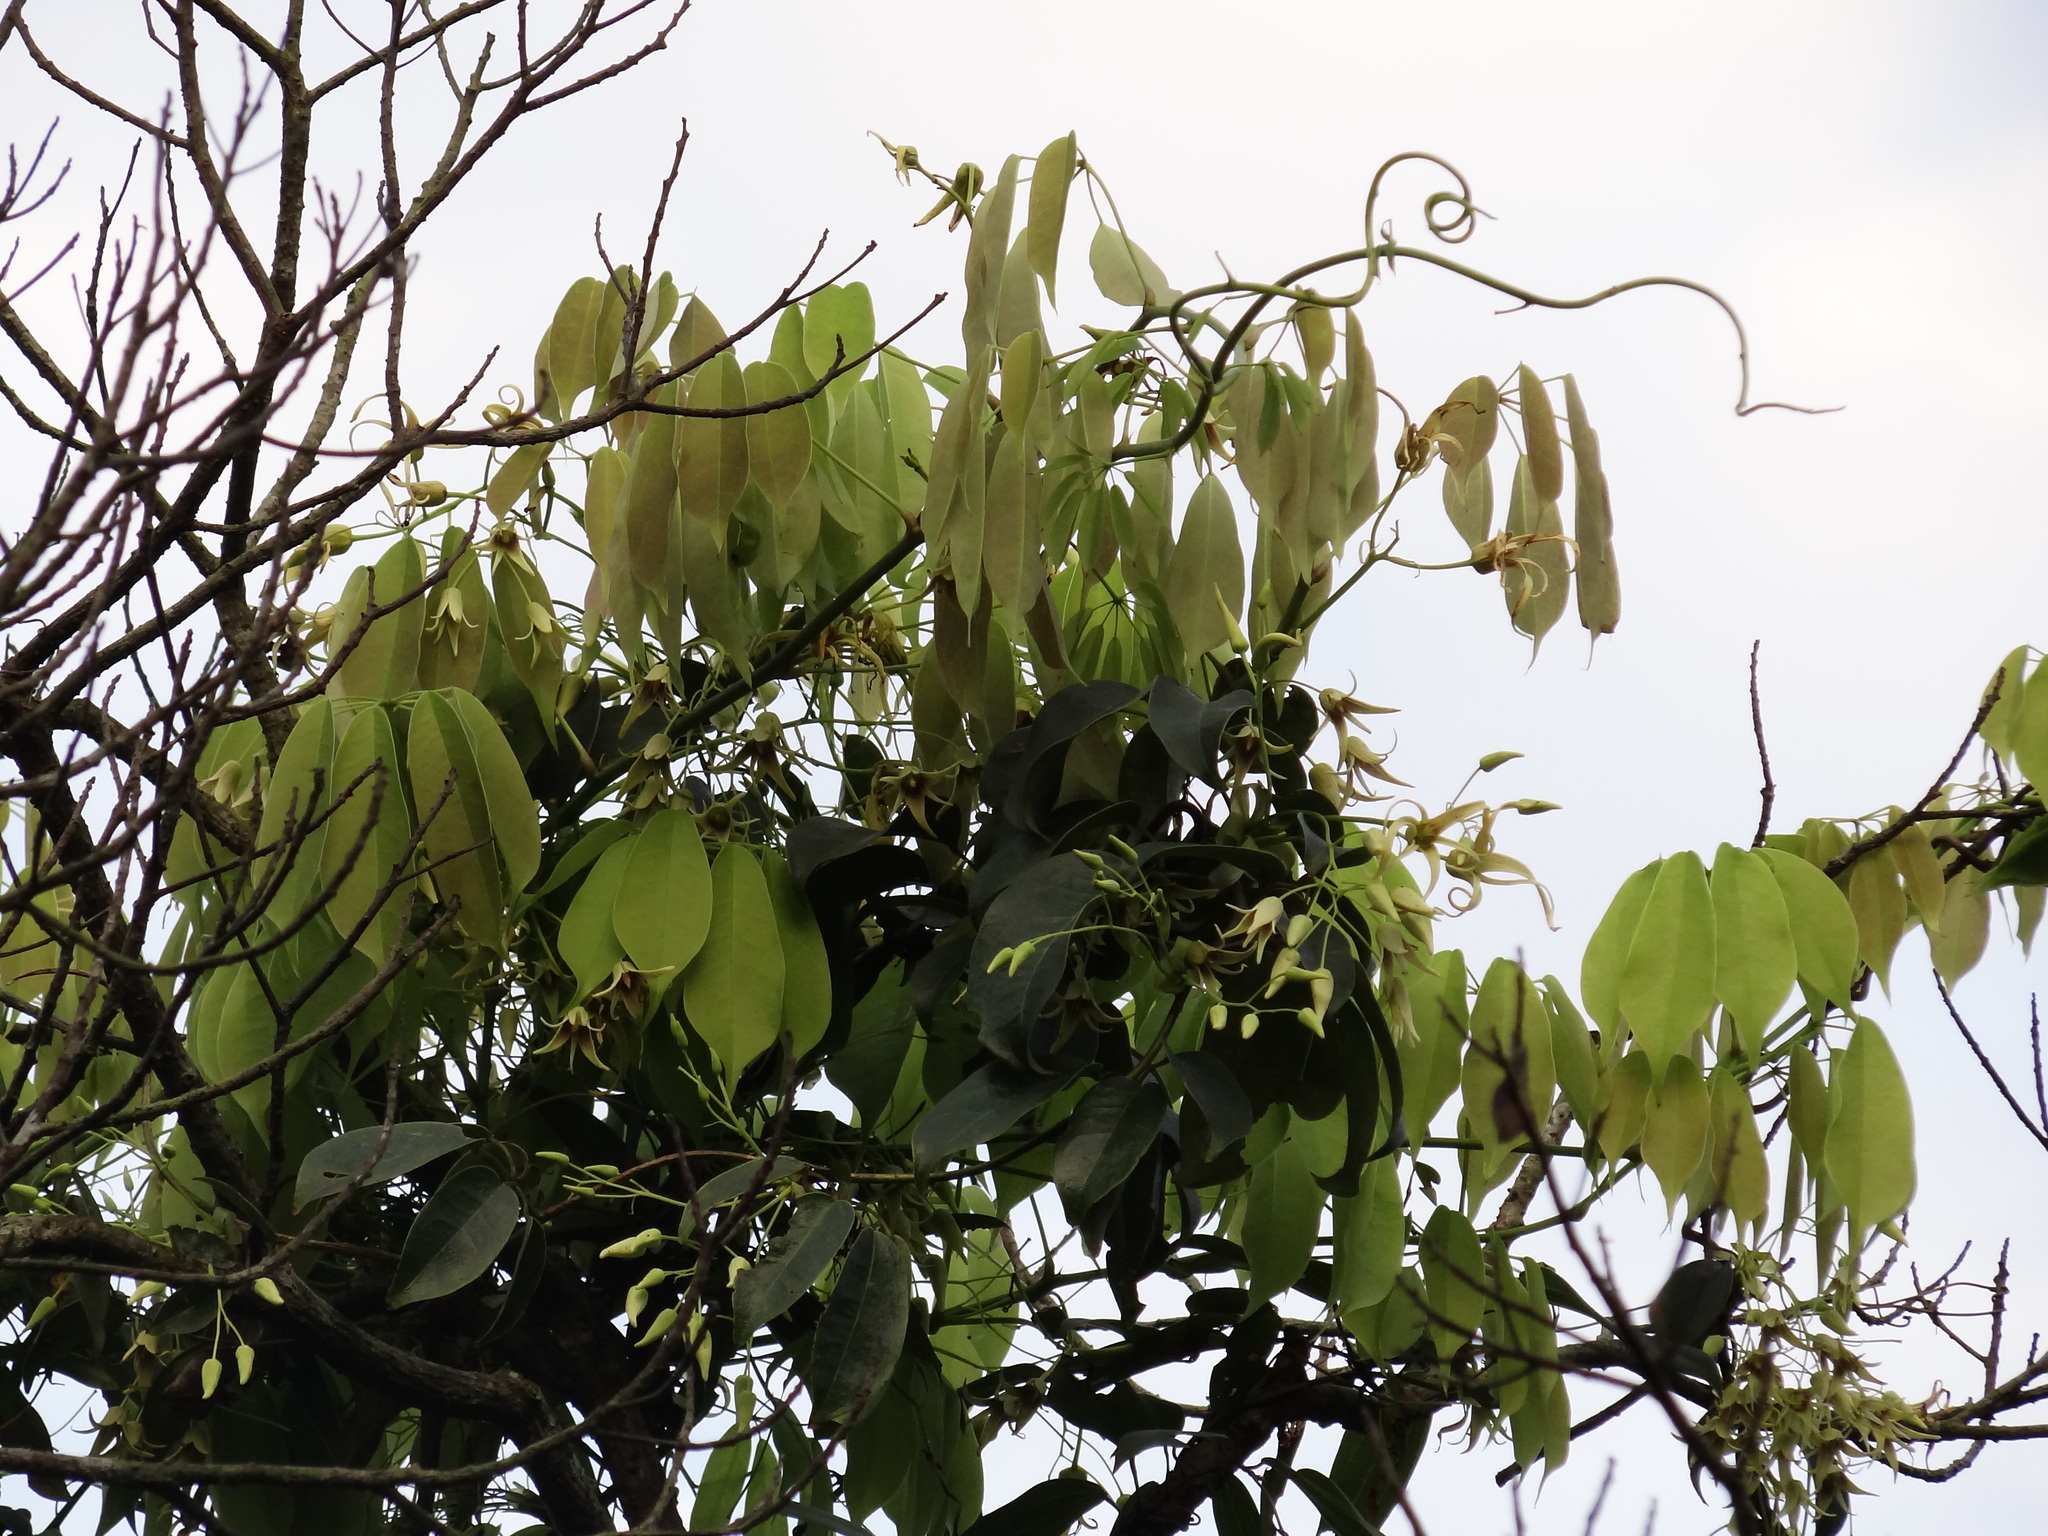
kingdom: Plantae
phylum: Tracheophyta
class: Magnoliopsida
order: Ranunculales
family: Lardizabalaceae
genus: Stauntonia
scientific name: Stauntonia obovatifoliola
